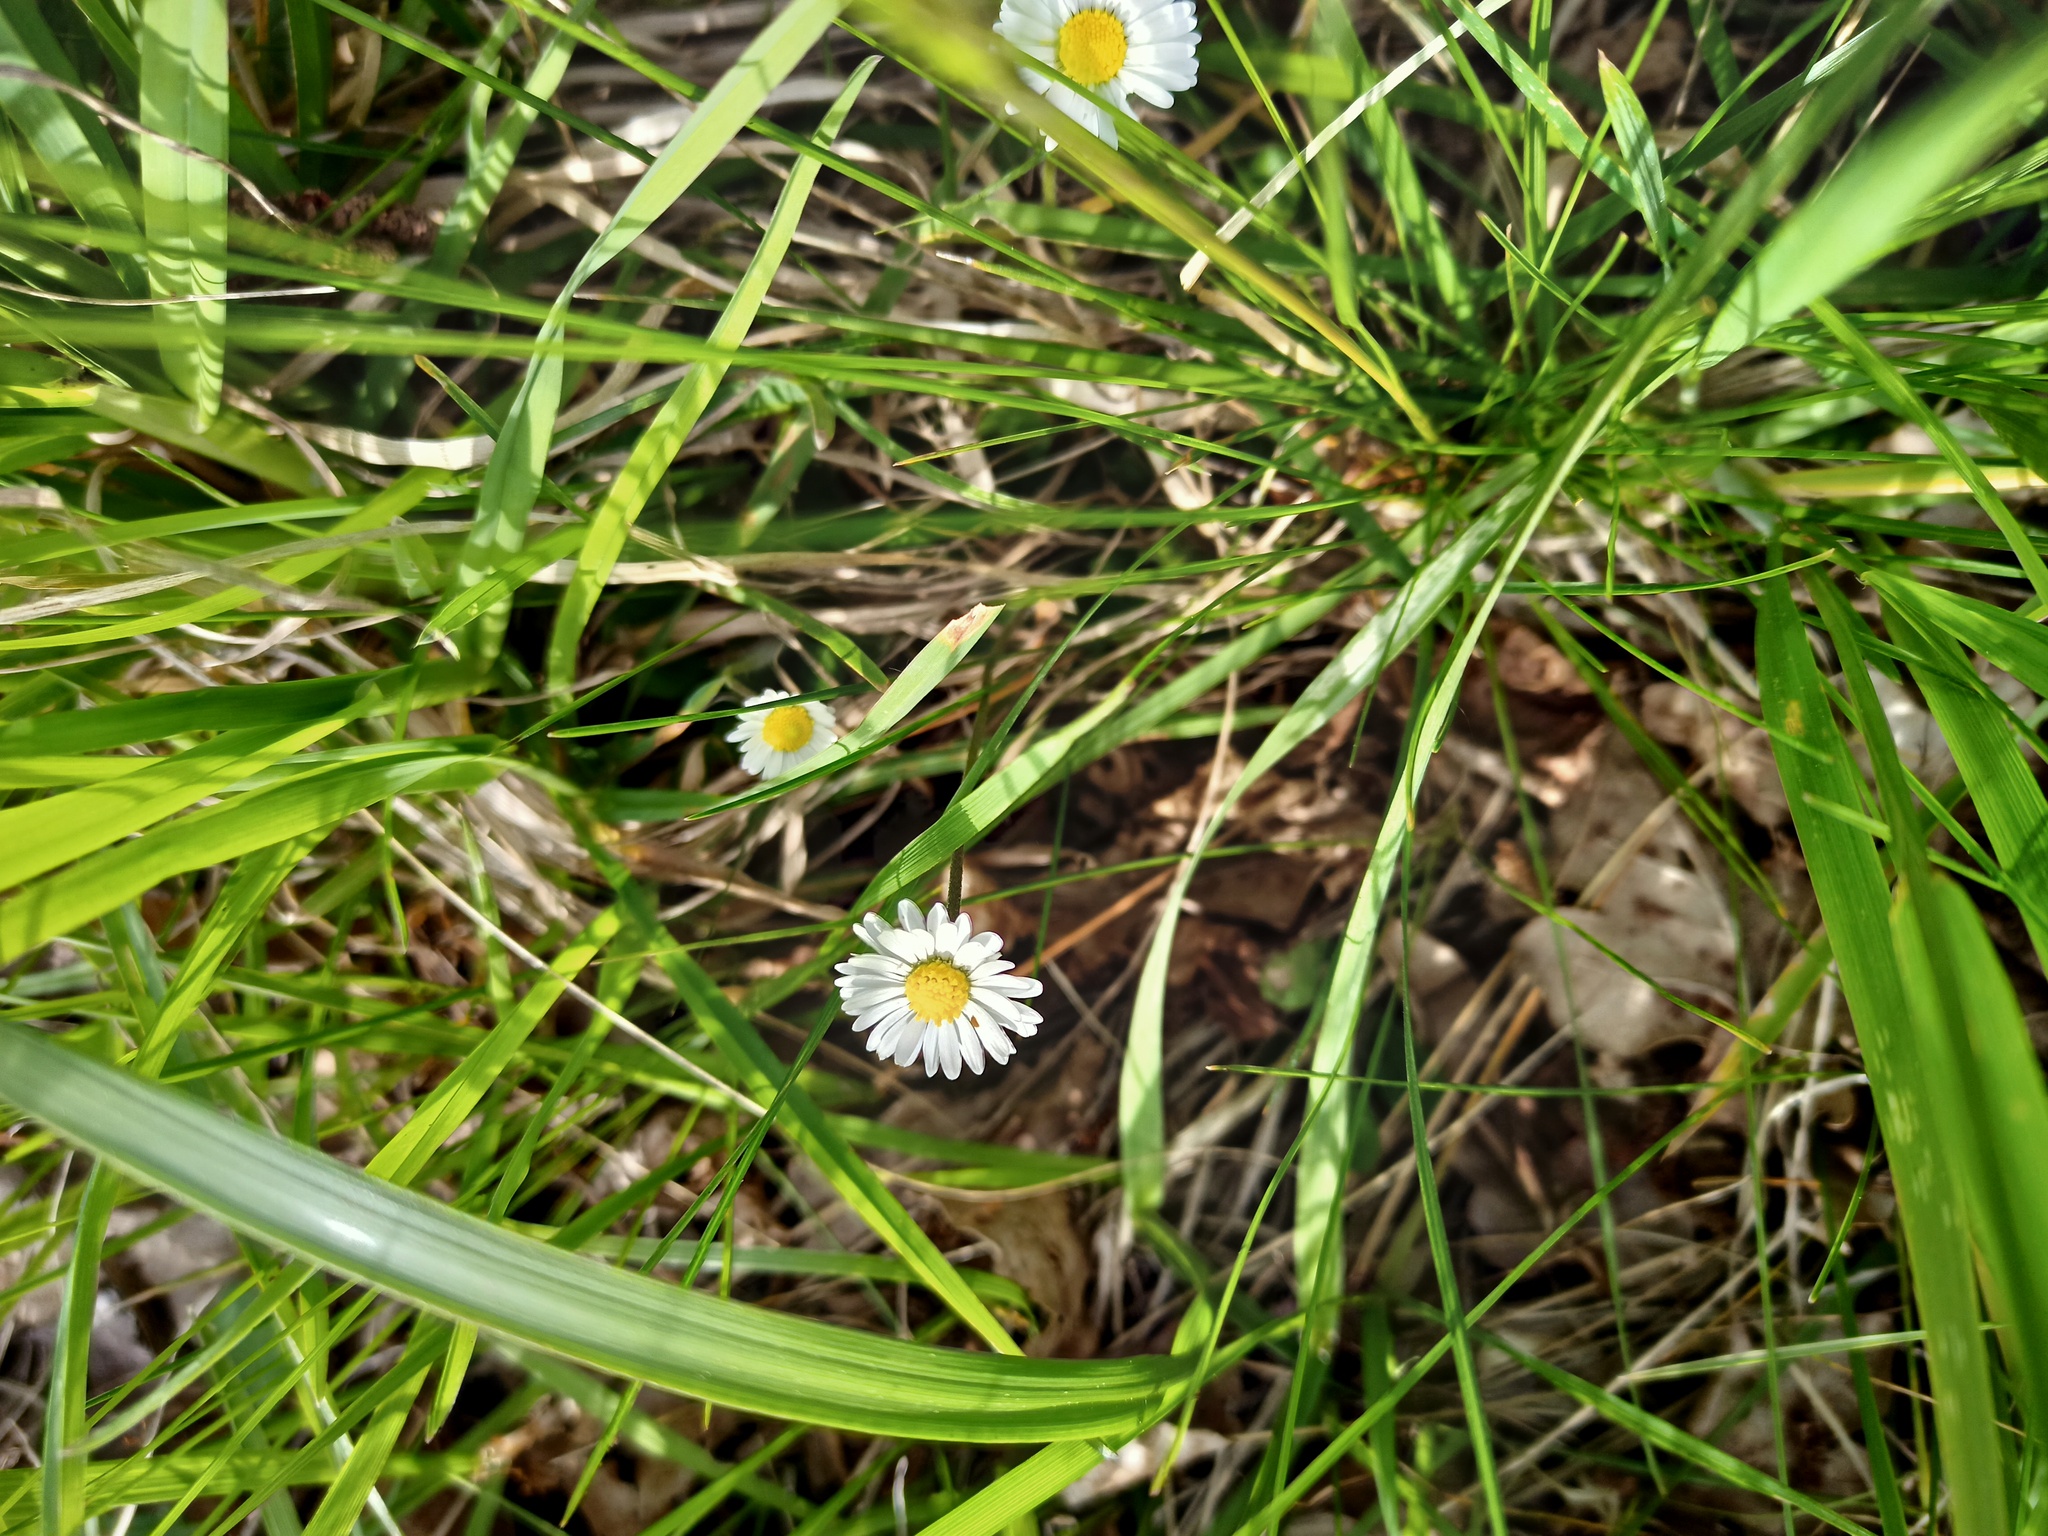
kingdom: Plantae
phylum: Tracheophyta
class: Magnoliopsida
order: Asterales
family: Asteraceae
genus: Bellis
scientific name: Bellis perennis
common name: Lawndaisy
